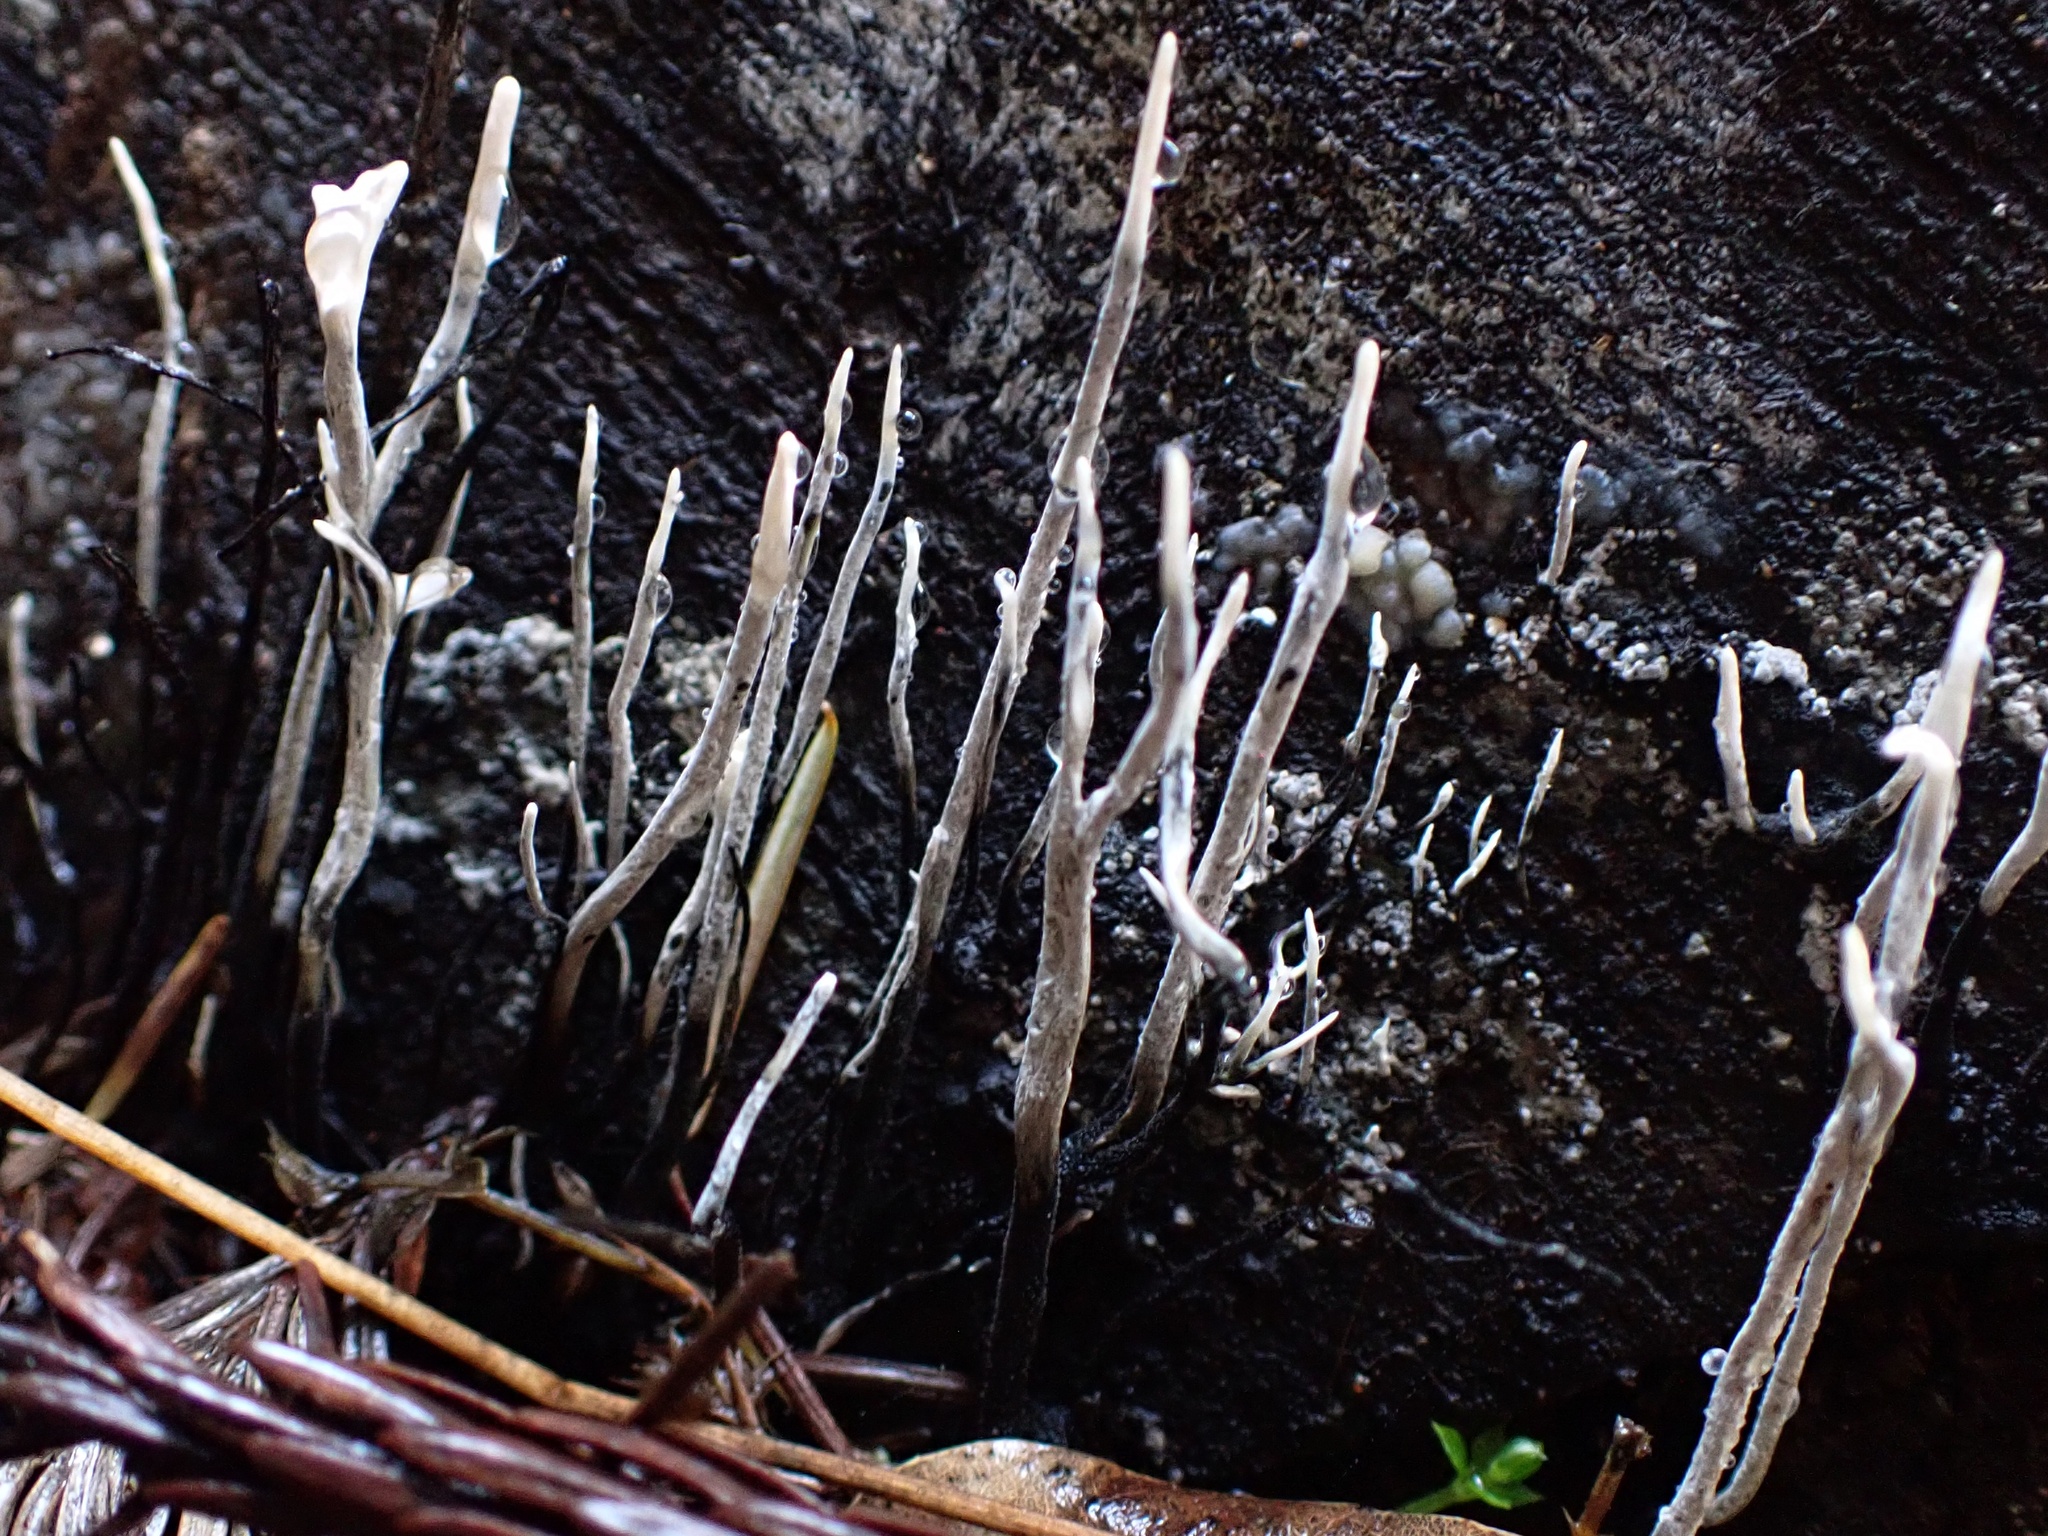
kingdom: Fungi
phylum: Ascomycota
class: Sordariomycetes
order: Xylariales
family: Xylariaceae
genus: Xylaria
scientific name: Xylaria hypoxylon
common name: Candle-snuff fungus
